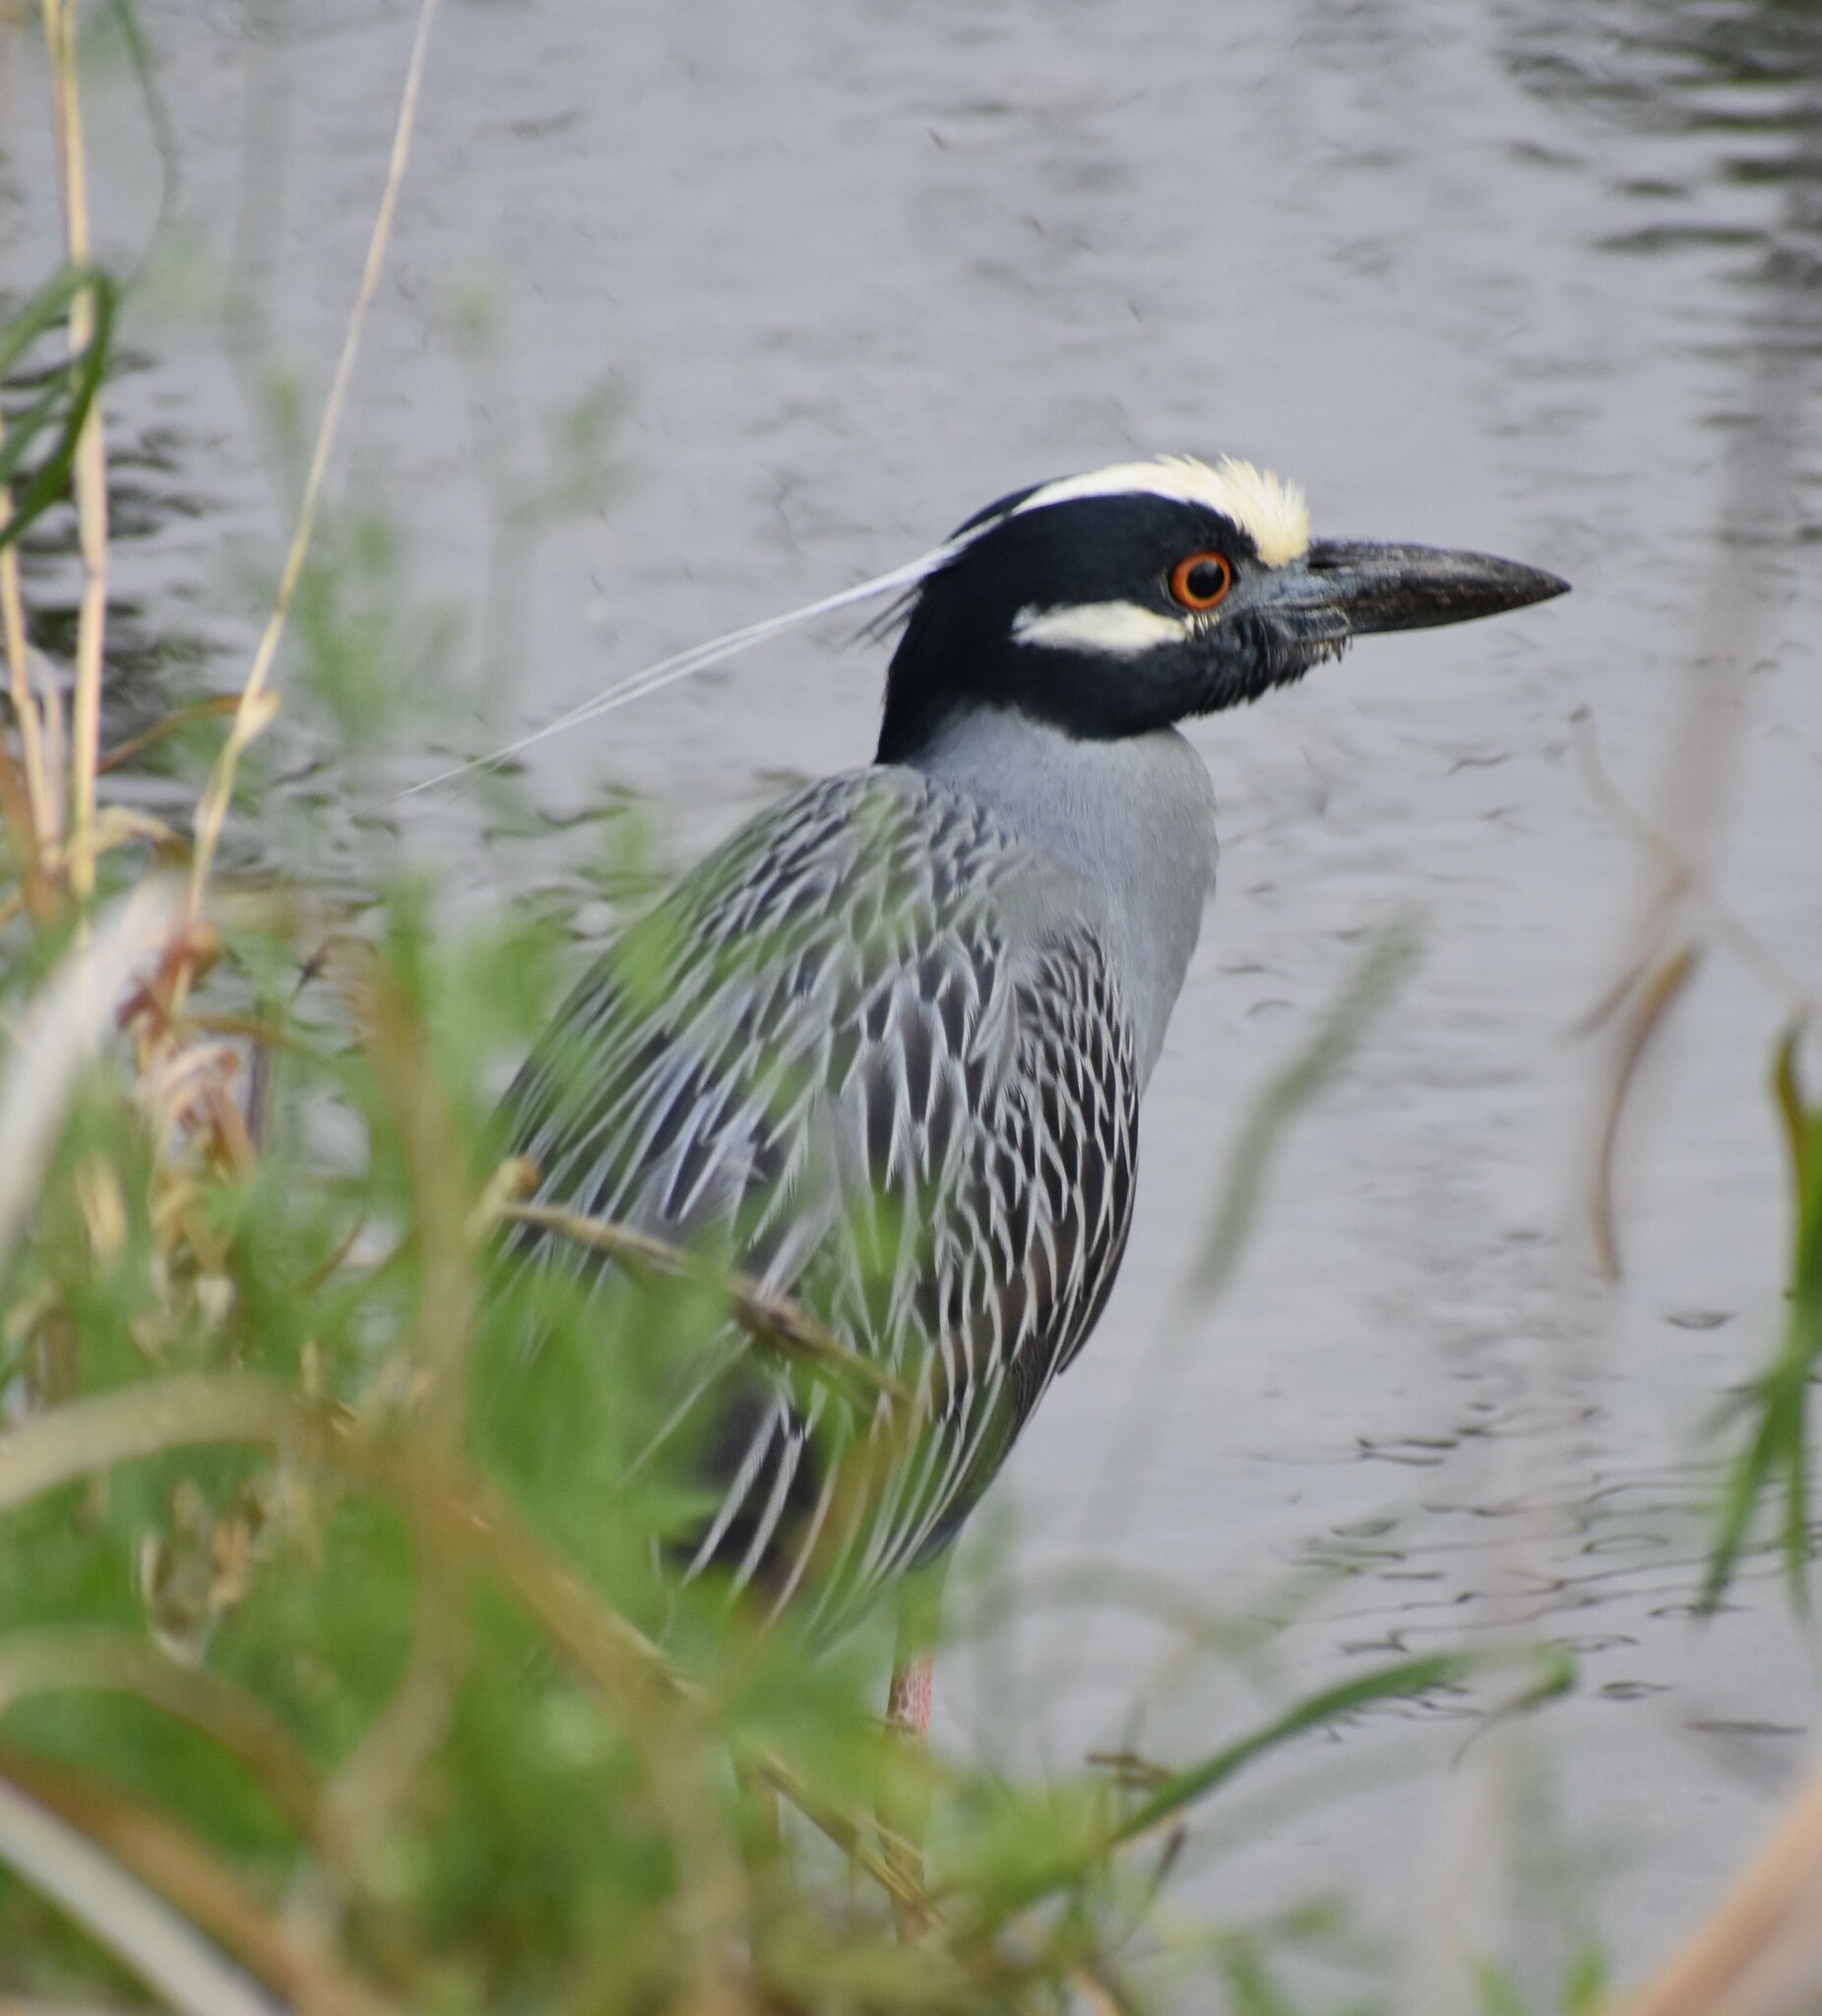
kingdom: Animalia
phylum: Chordata
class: Aves
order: Pelecaniformes
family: Ardeidae
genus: Nyctanassa
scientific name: Nyctanassa violacea
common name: Yellow-crowned night heron
